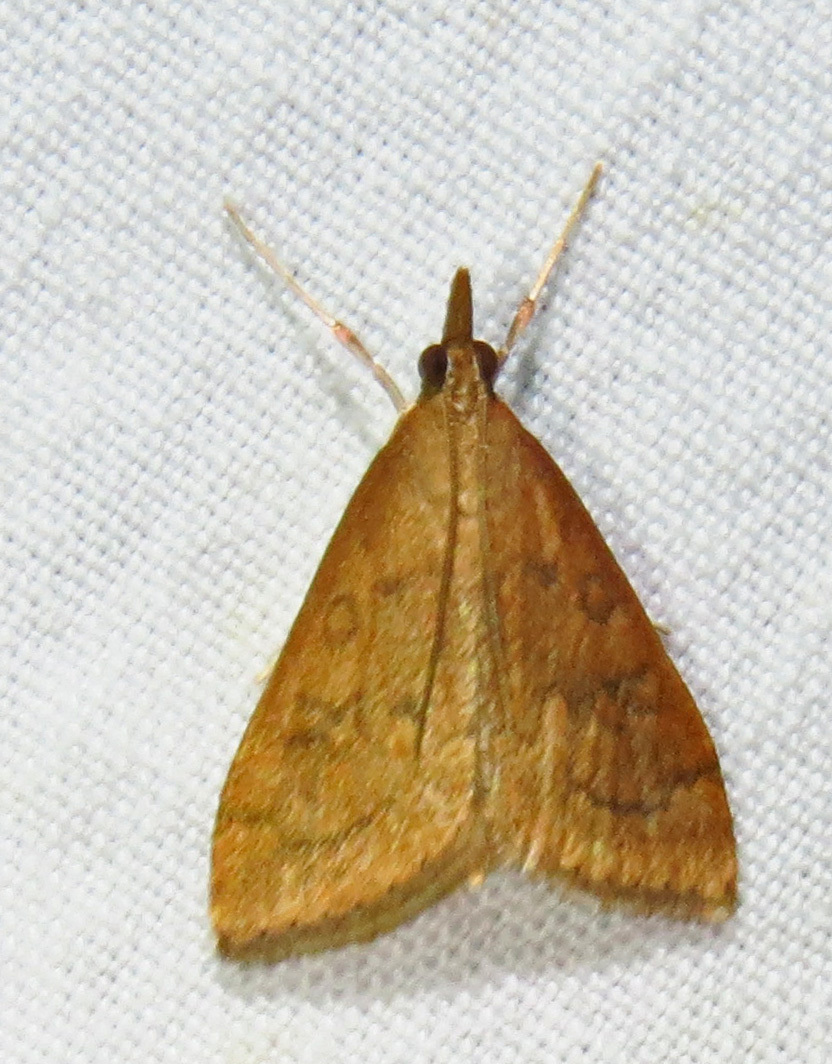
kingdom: Animalia
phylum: Arthropoda
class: Insecta
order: Lepidoptera
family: Crambidae
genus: Udea
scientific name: Udea rubigalis
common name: Celery leaftier moth
